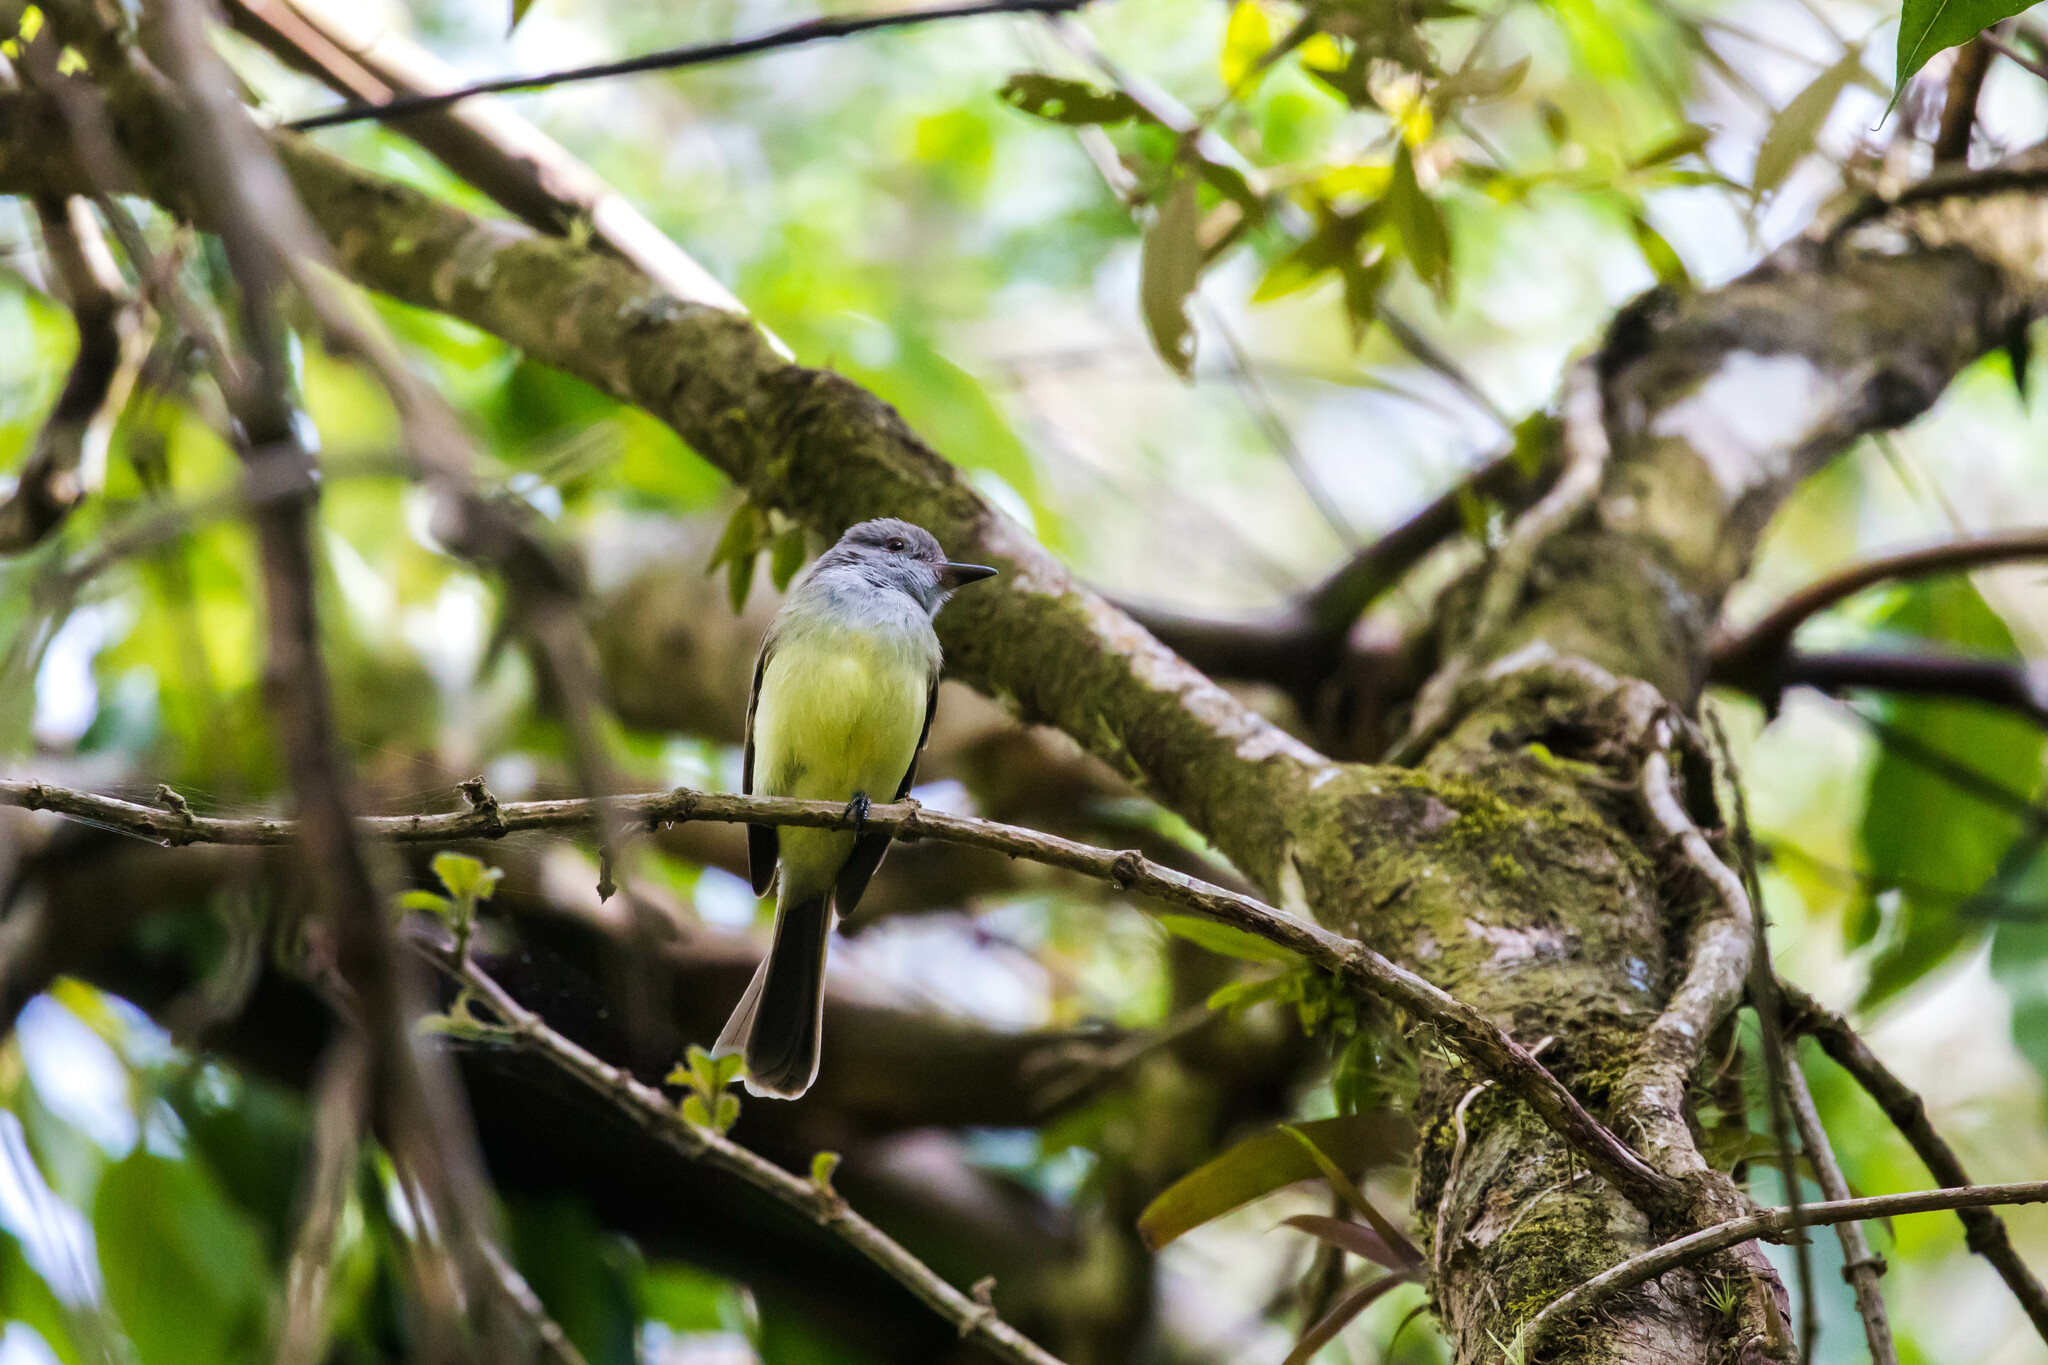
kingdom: Animalia
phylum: Chordata
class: Aves
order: Passeriformes
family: Tyrannidae
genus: Myiarchus
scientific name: Myiarchus panamensis
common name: Panama flycatcher
